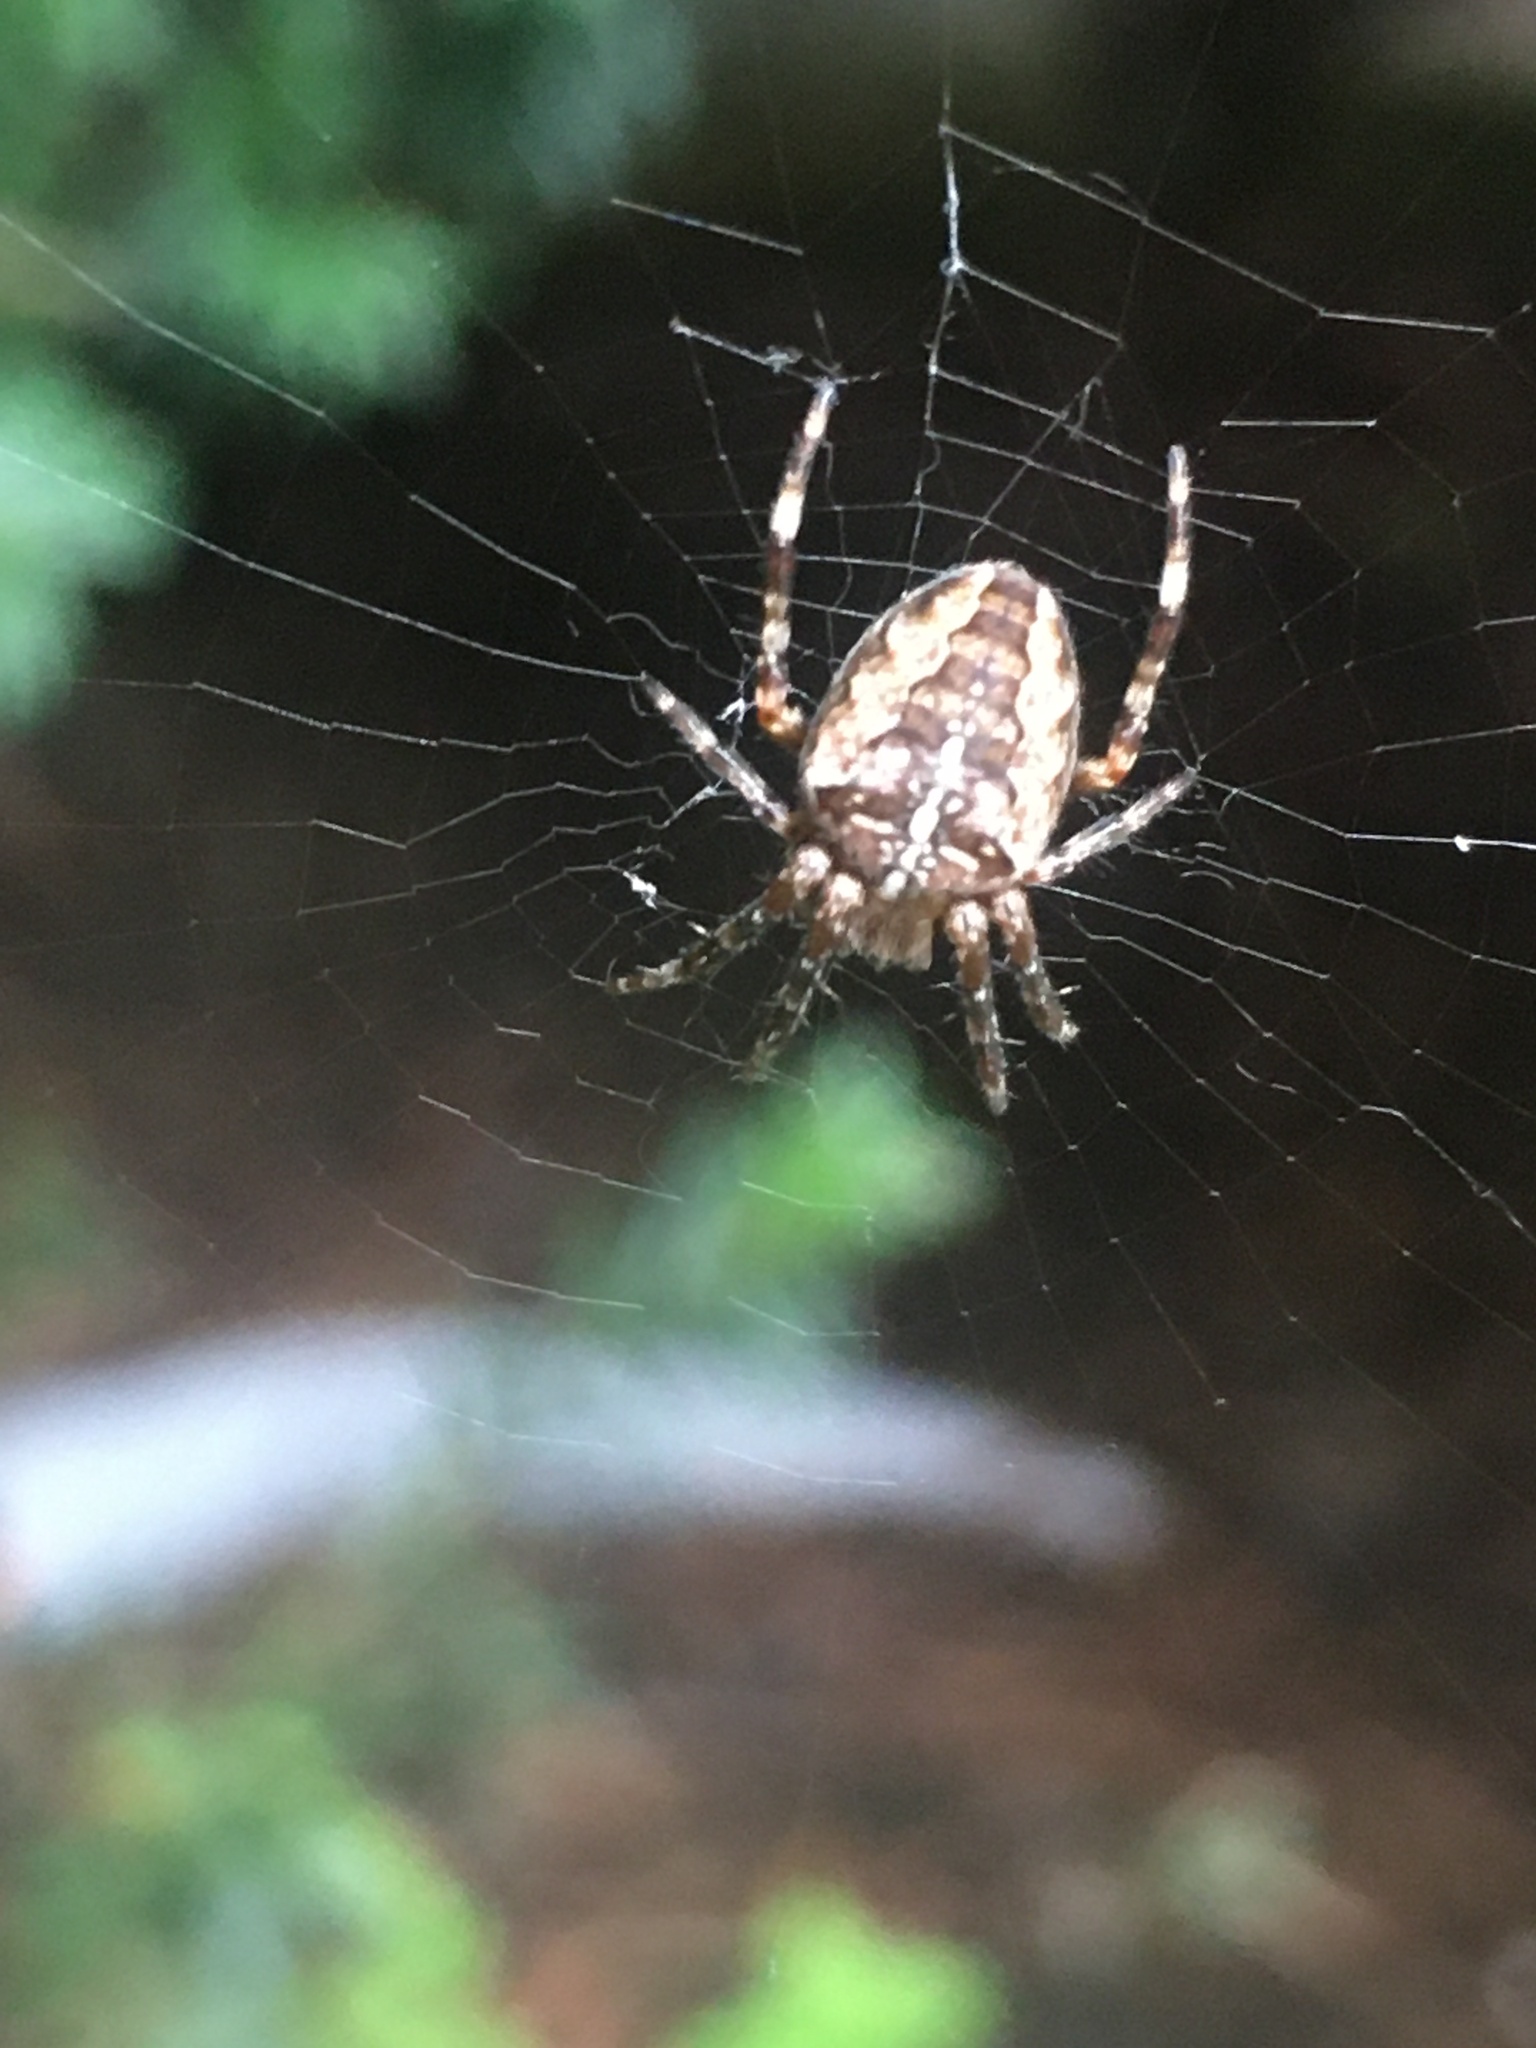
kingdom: Animalia
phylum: Arthropoda
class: Arachnida
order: Araneae
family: Araneidae
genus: Araneus
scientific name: Araneus diadematus
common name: Cross orbweaver
